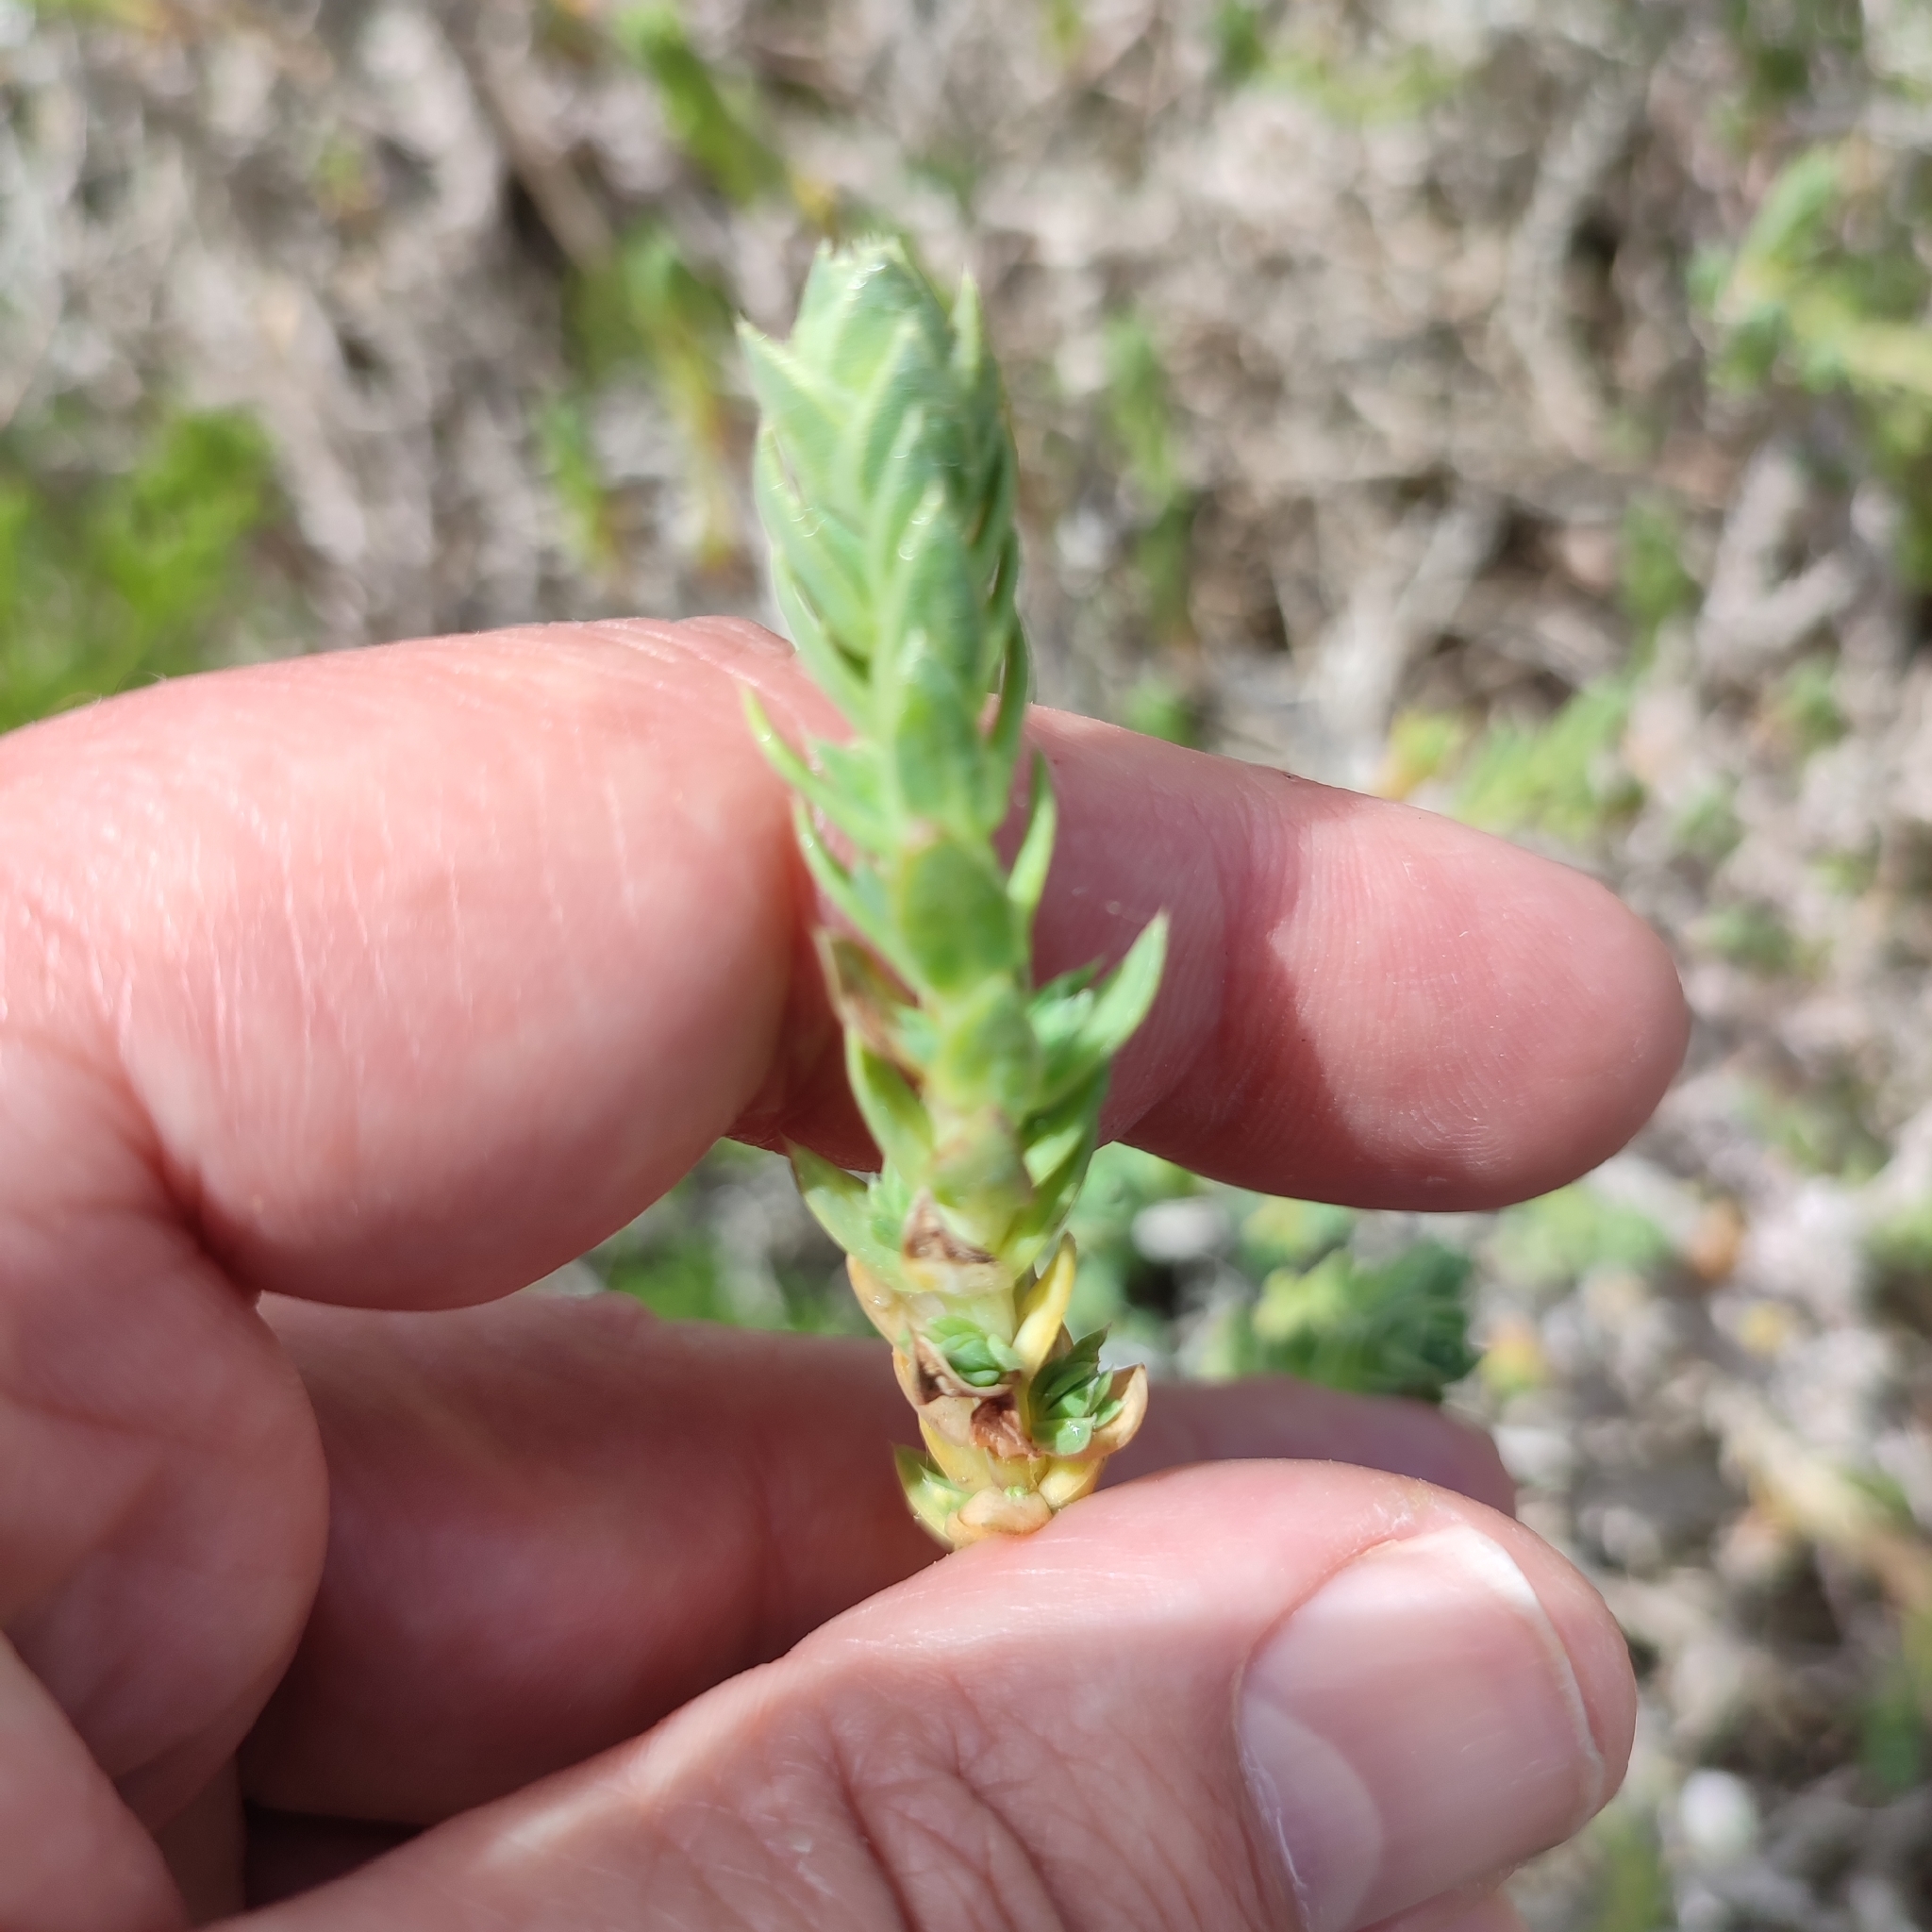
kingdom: Plantae
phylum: Tracheophyta
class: Magnoliopsida
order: Gentianales
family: Rubiaceae
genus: Crucianella
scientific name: Crucianella maritima
